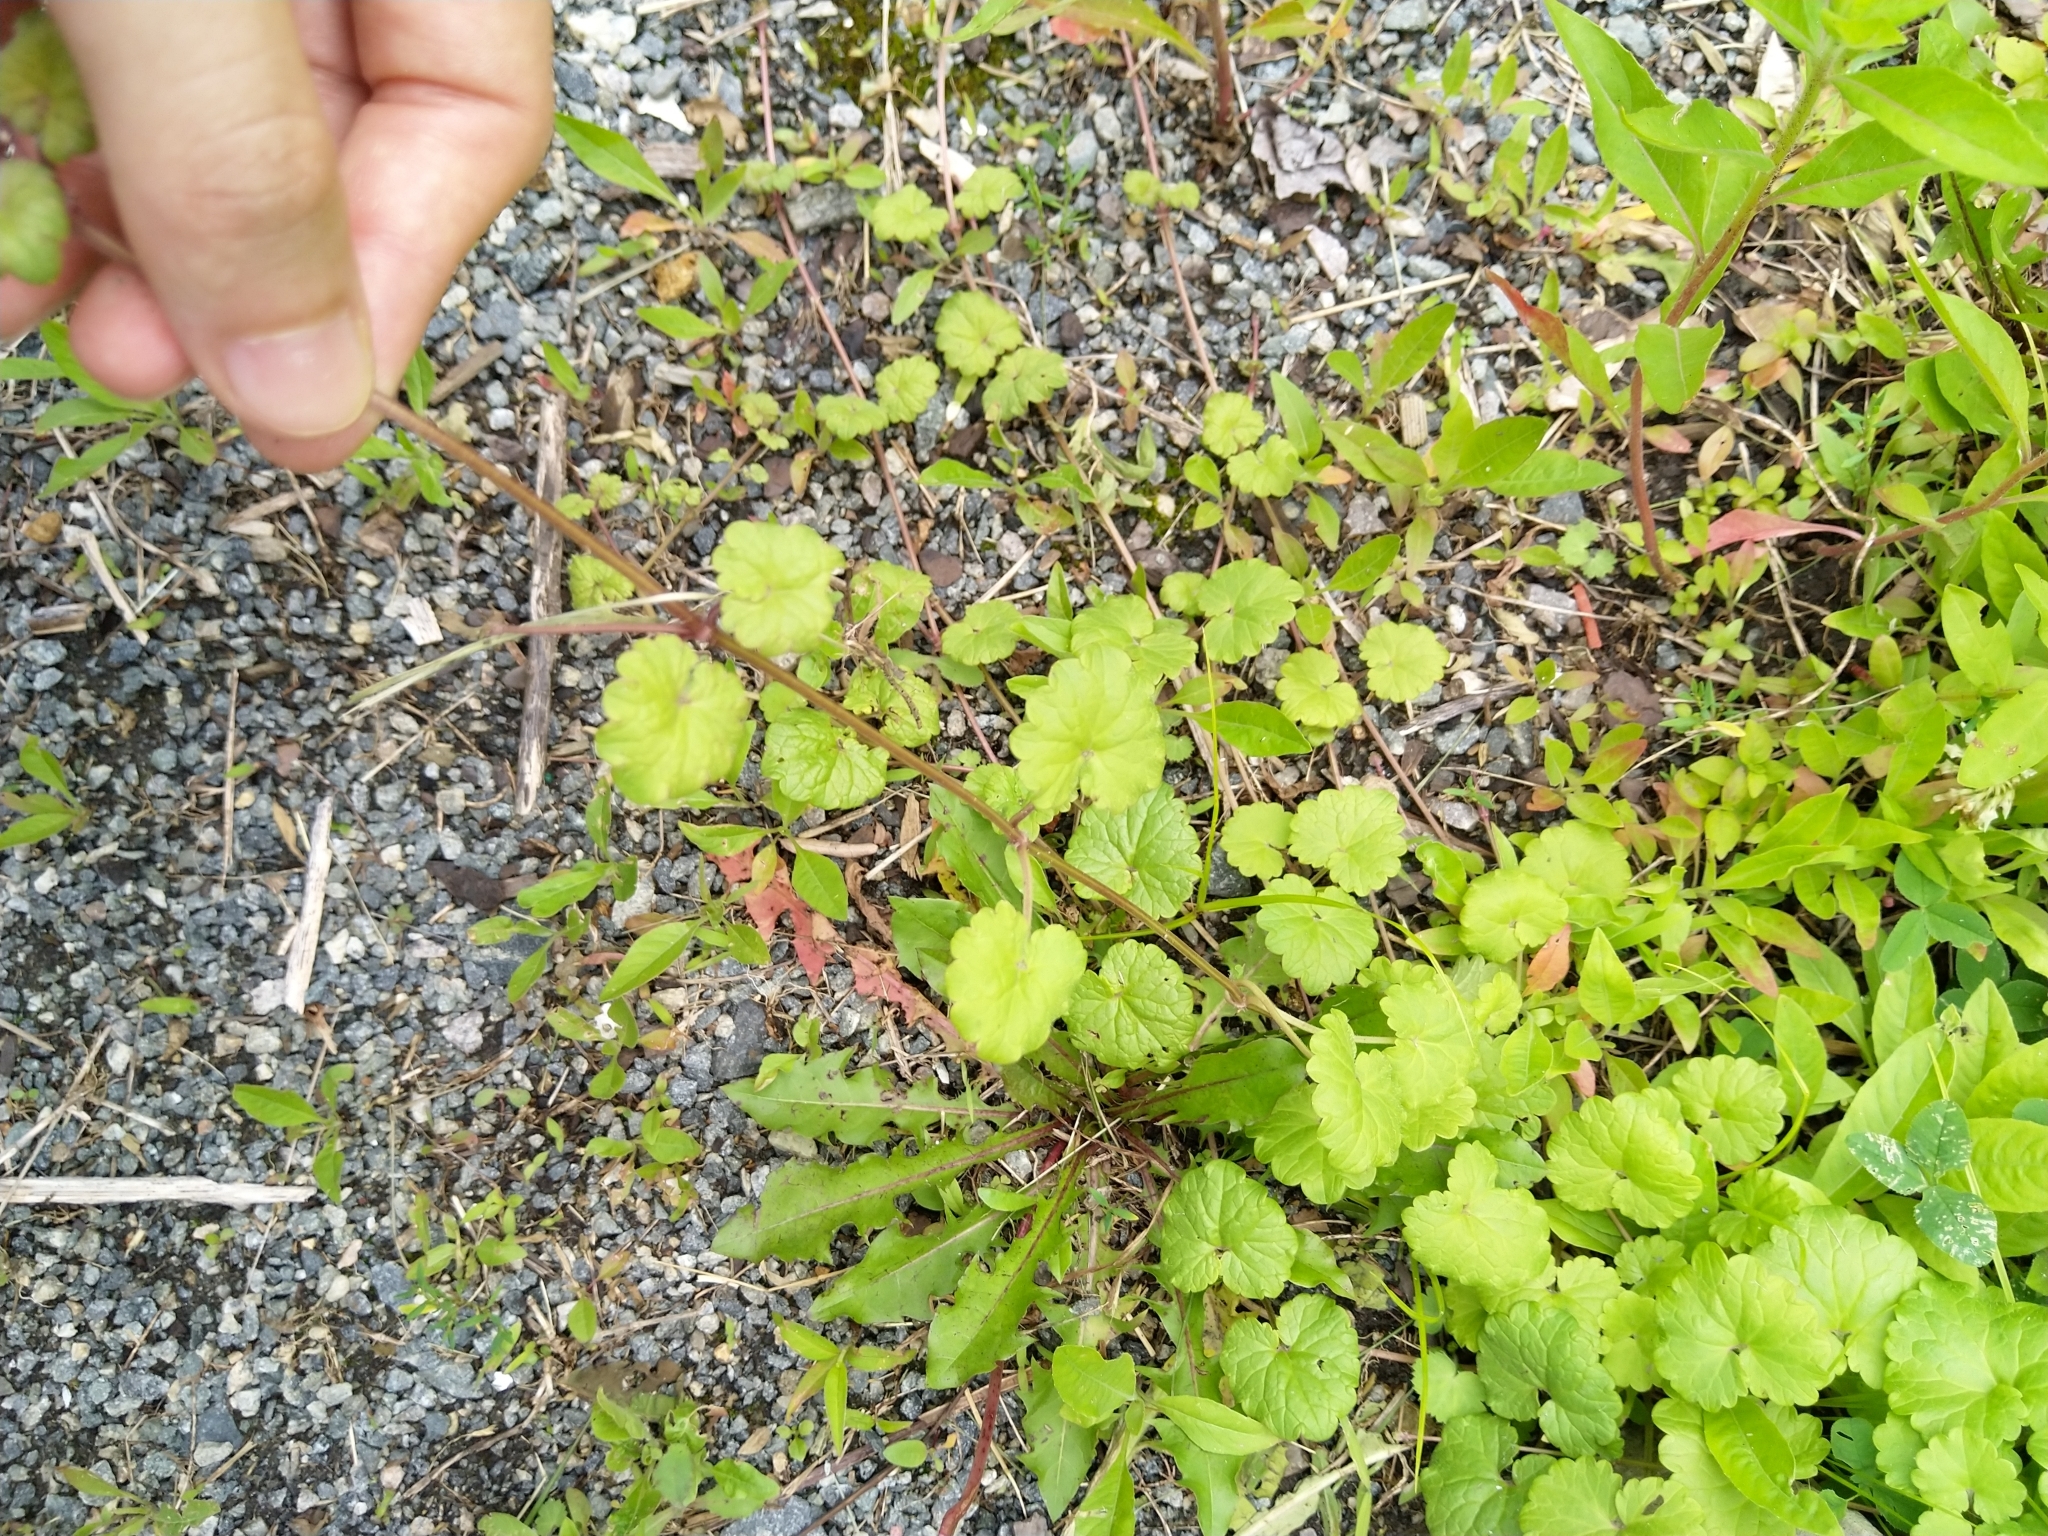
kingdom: Plantae
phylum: Tracheophyta
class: Magnoliopsida
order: Lamiales
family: Lamiaceae
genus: Glechoma
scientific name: Glechoma hederacea
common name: Ground ivy
